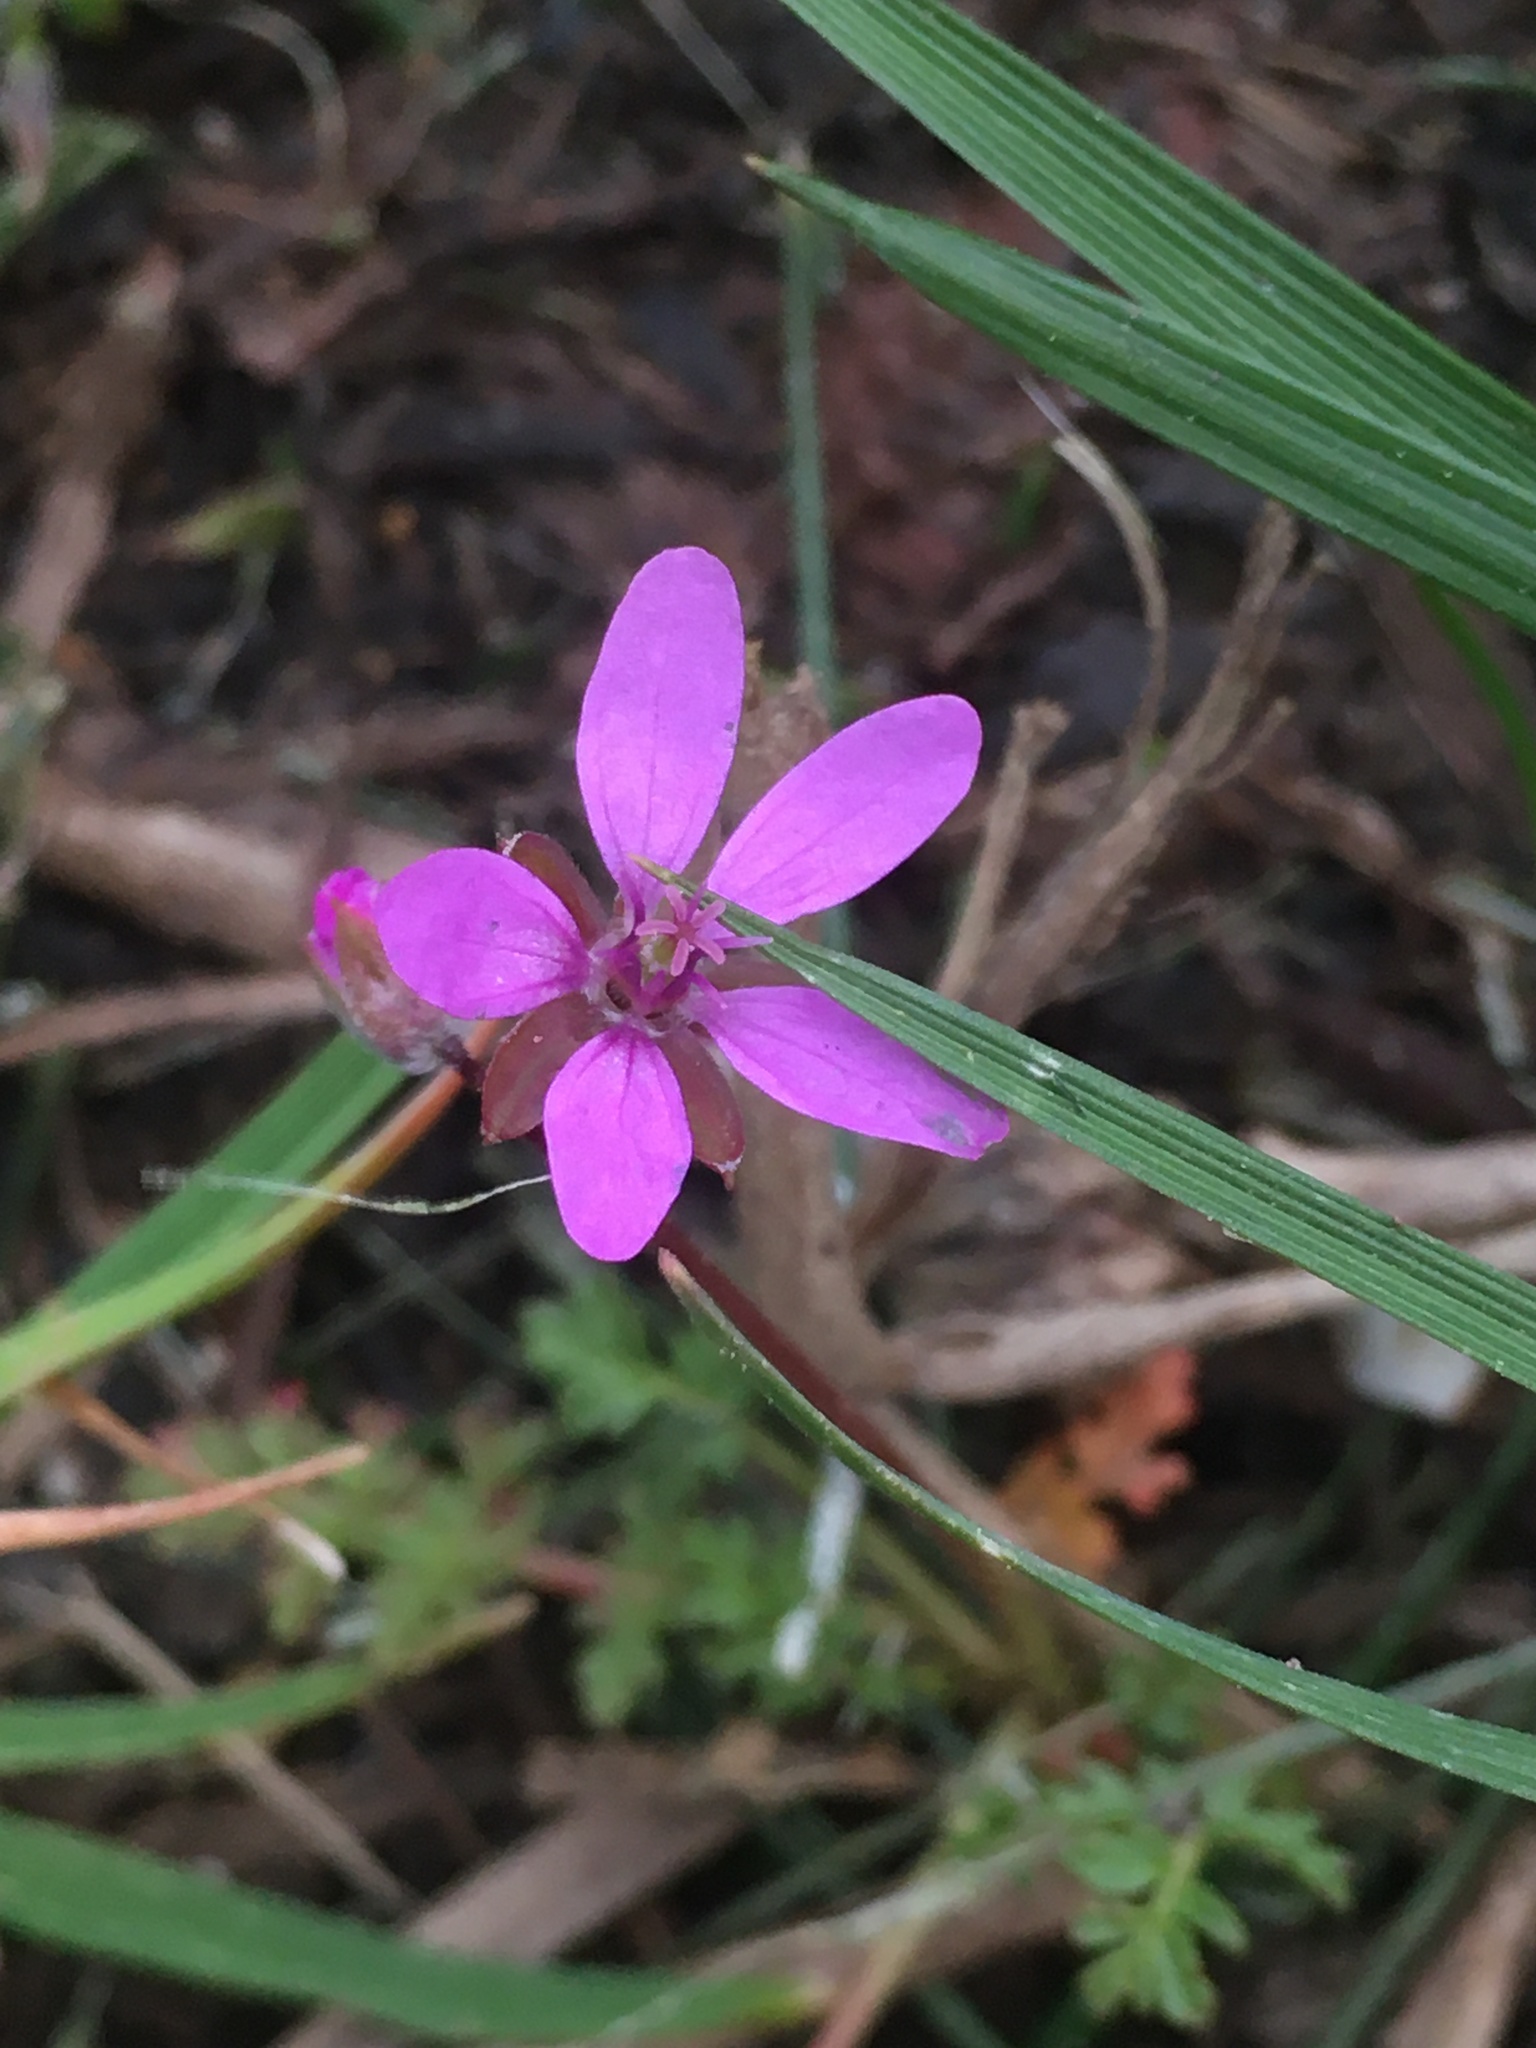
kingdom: Plantae
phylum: Tracheophyta
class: Magnoliopsida
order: Geraniales
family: Geraniaceae
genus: Erodium
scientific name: Erodium cicutarium
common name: Common stork's-bill
